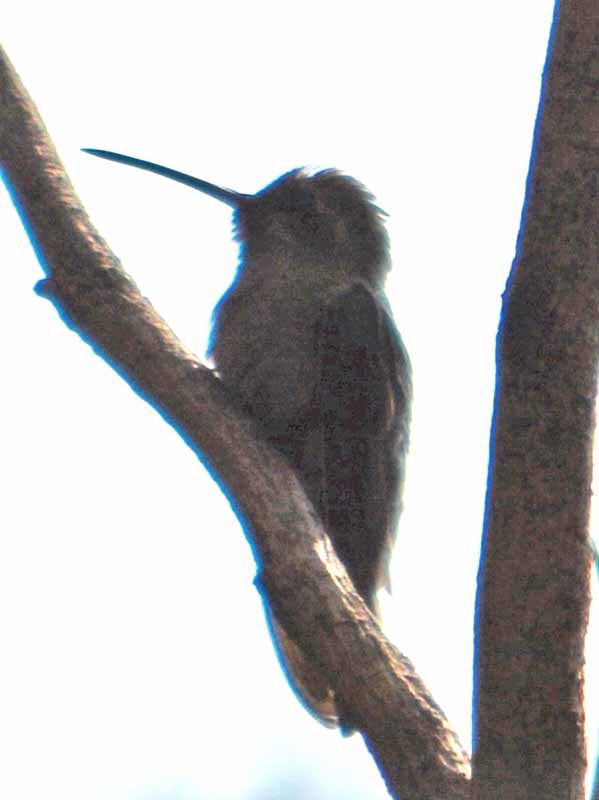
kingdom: Animalia
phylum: Chordata
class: Aves
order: Apodiformes
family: Trochilidae
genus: Cynanthus
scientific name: Cynanthus latirostris
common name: Broad-billed hummingbird
